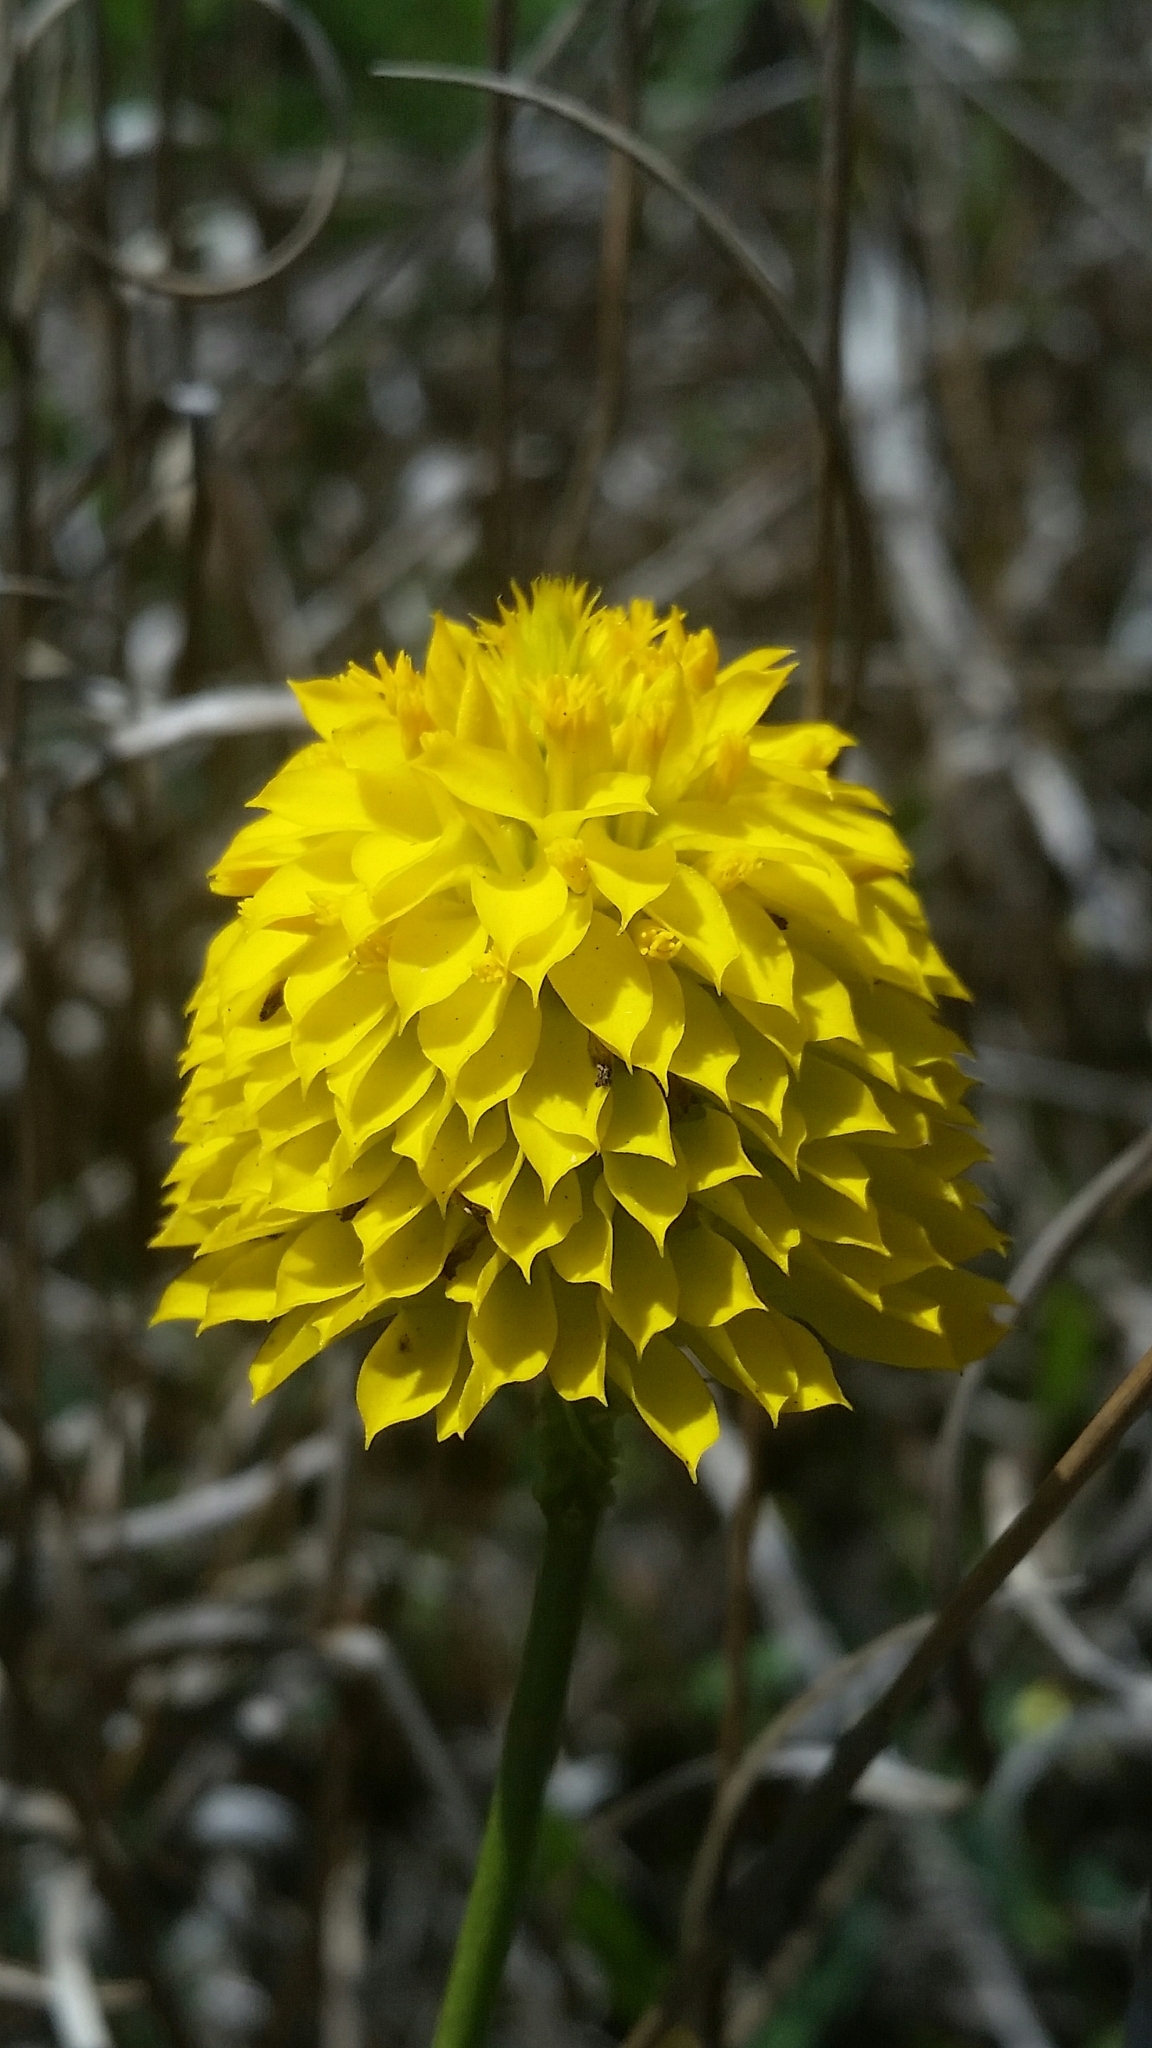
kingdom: Plantae
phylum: Tracheophyta
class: Magnoliopsida
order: Fabales
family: Polygalaceae
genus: Polygala
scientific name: Polygala rugelii
